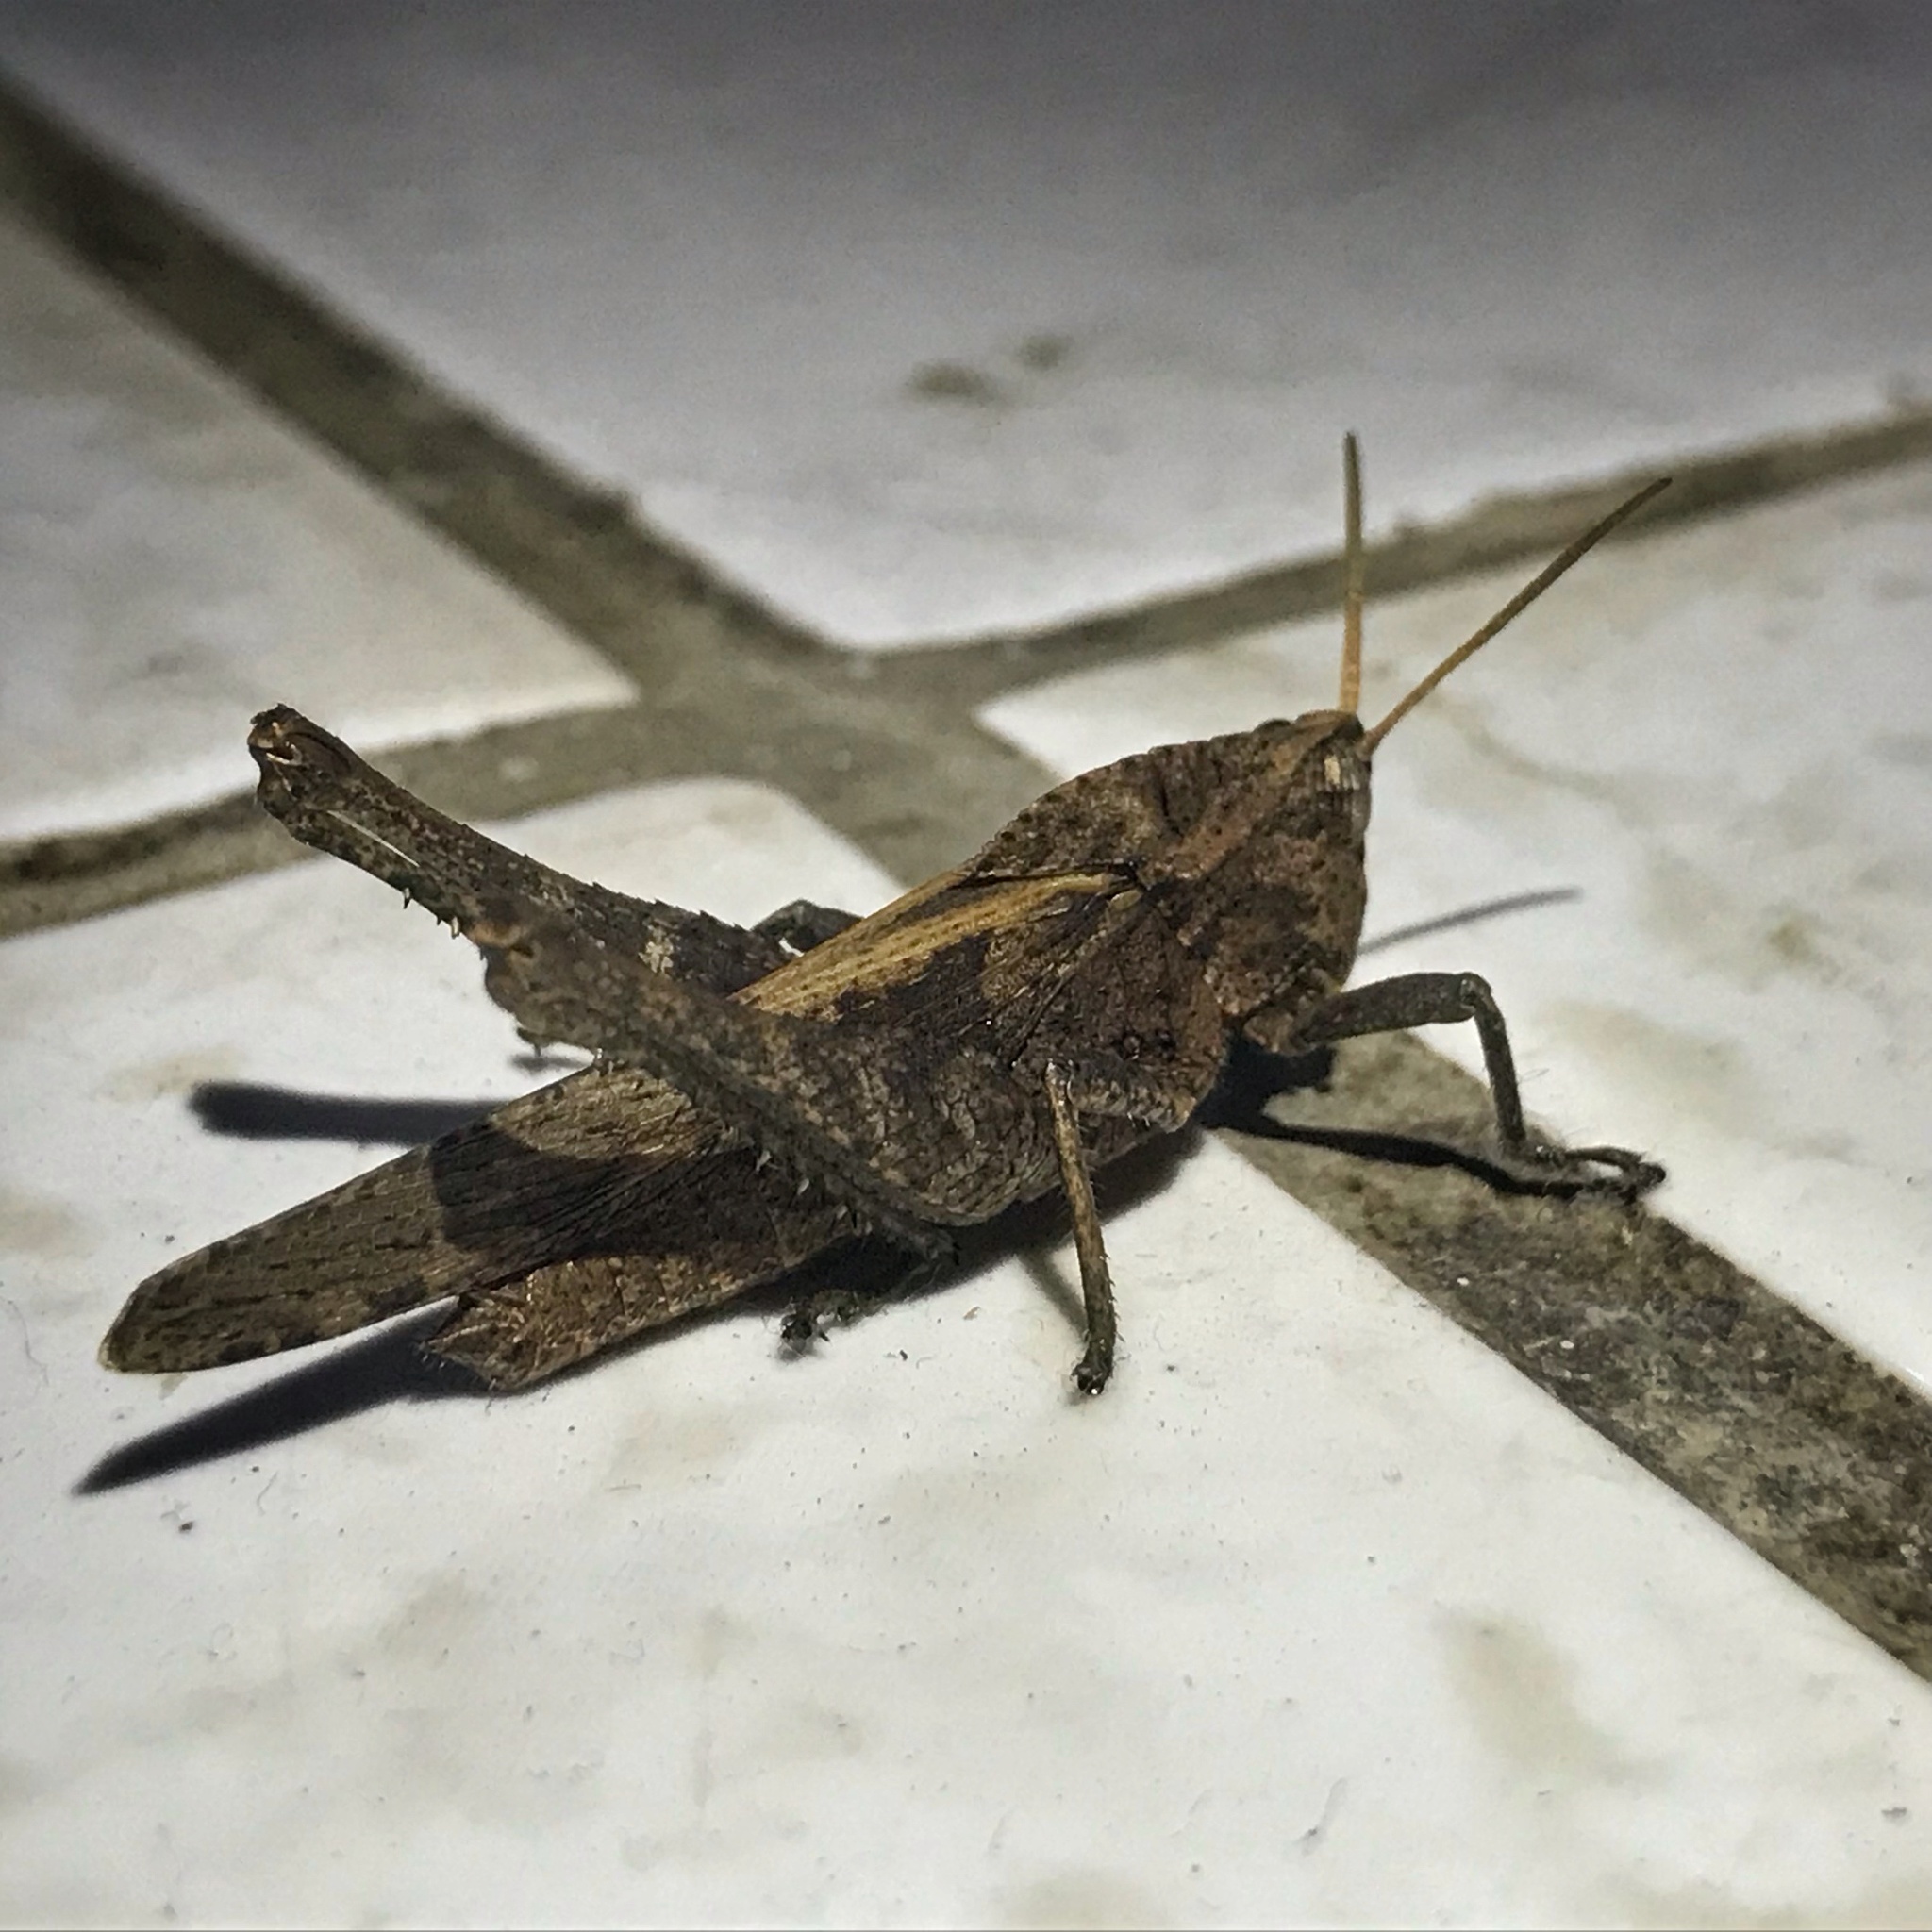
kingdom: Animalia
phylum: Arthropoda
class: Insecta
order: Orthoptera
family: Romaleidae
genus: Xyleus
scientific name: Xyleus discoideus
